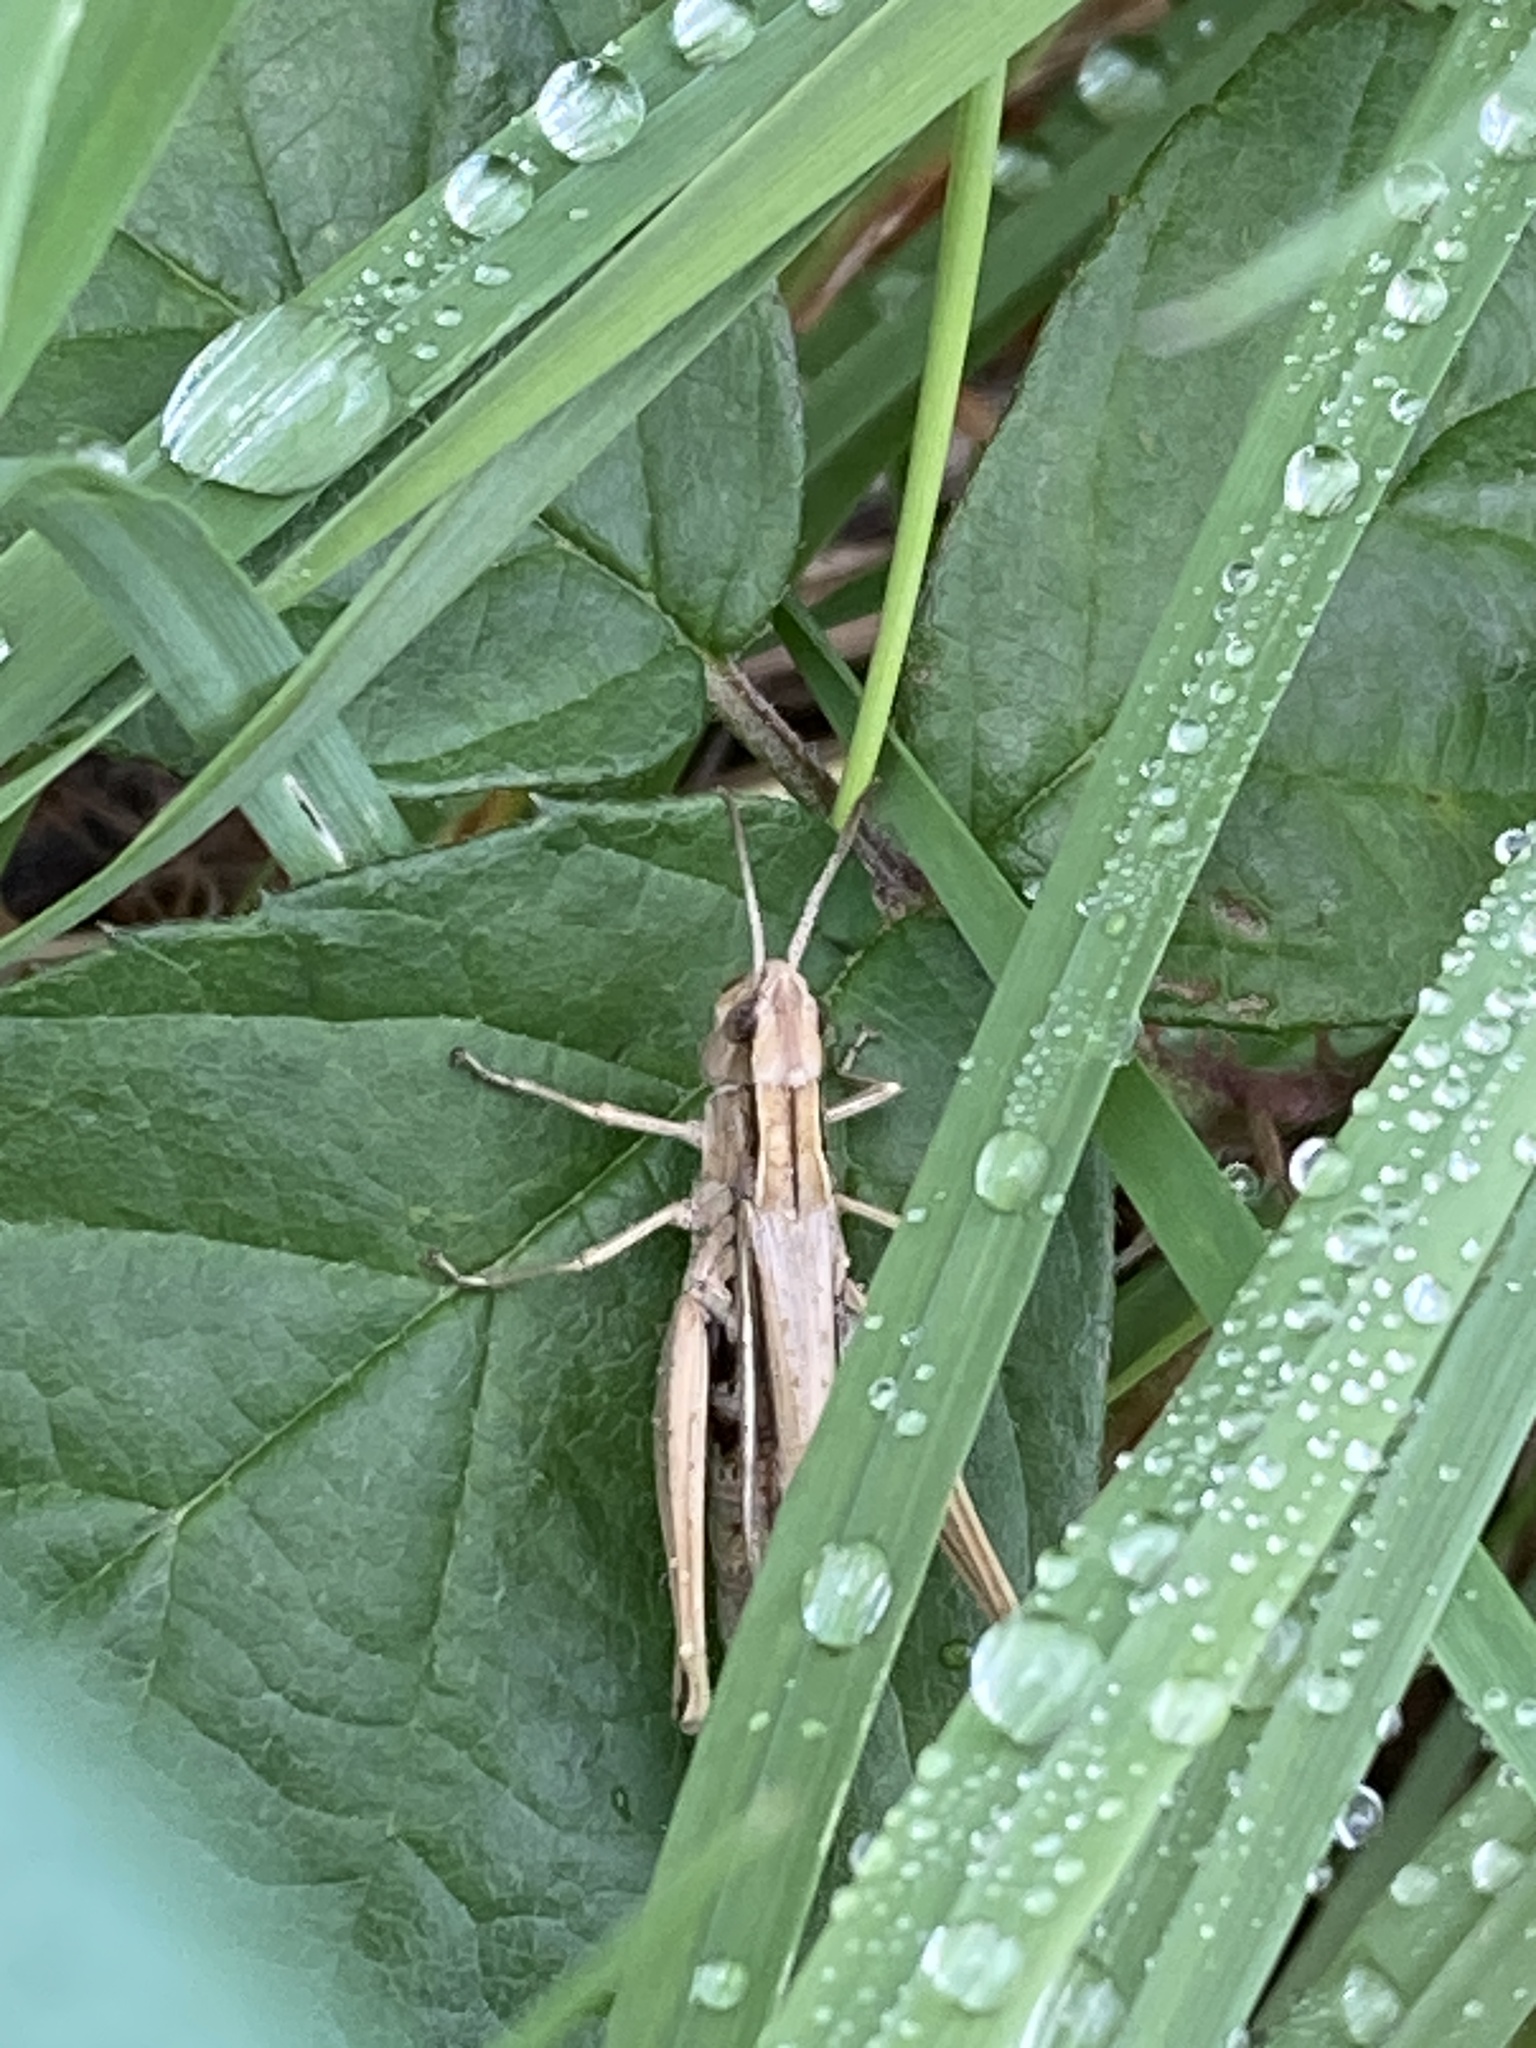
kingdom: Animalia
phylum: Arthropoda
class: Insecta
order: Orthoptera
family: Acrididae
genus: Chorthippus
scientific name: Chorthippus albomarginatus
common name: Lesser marsh grasshopper
